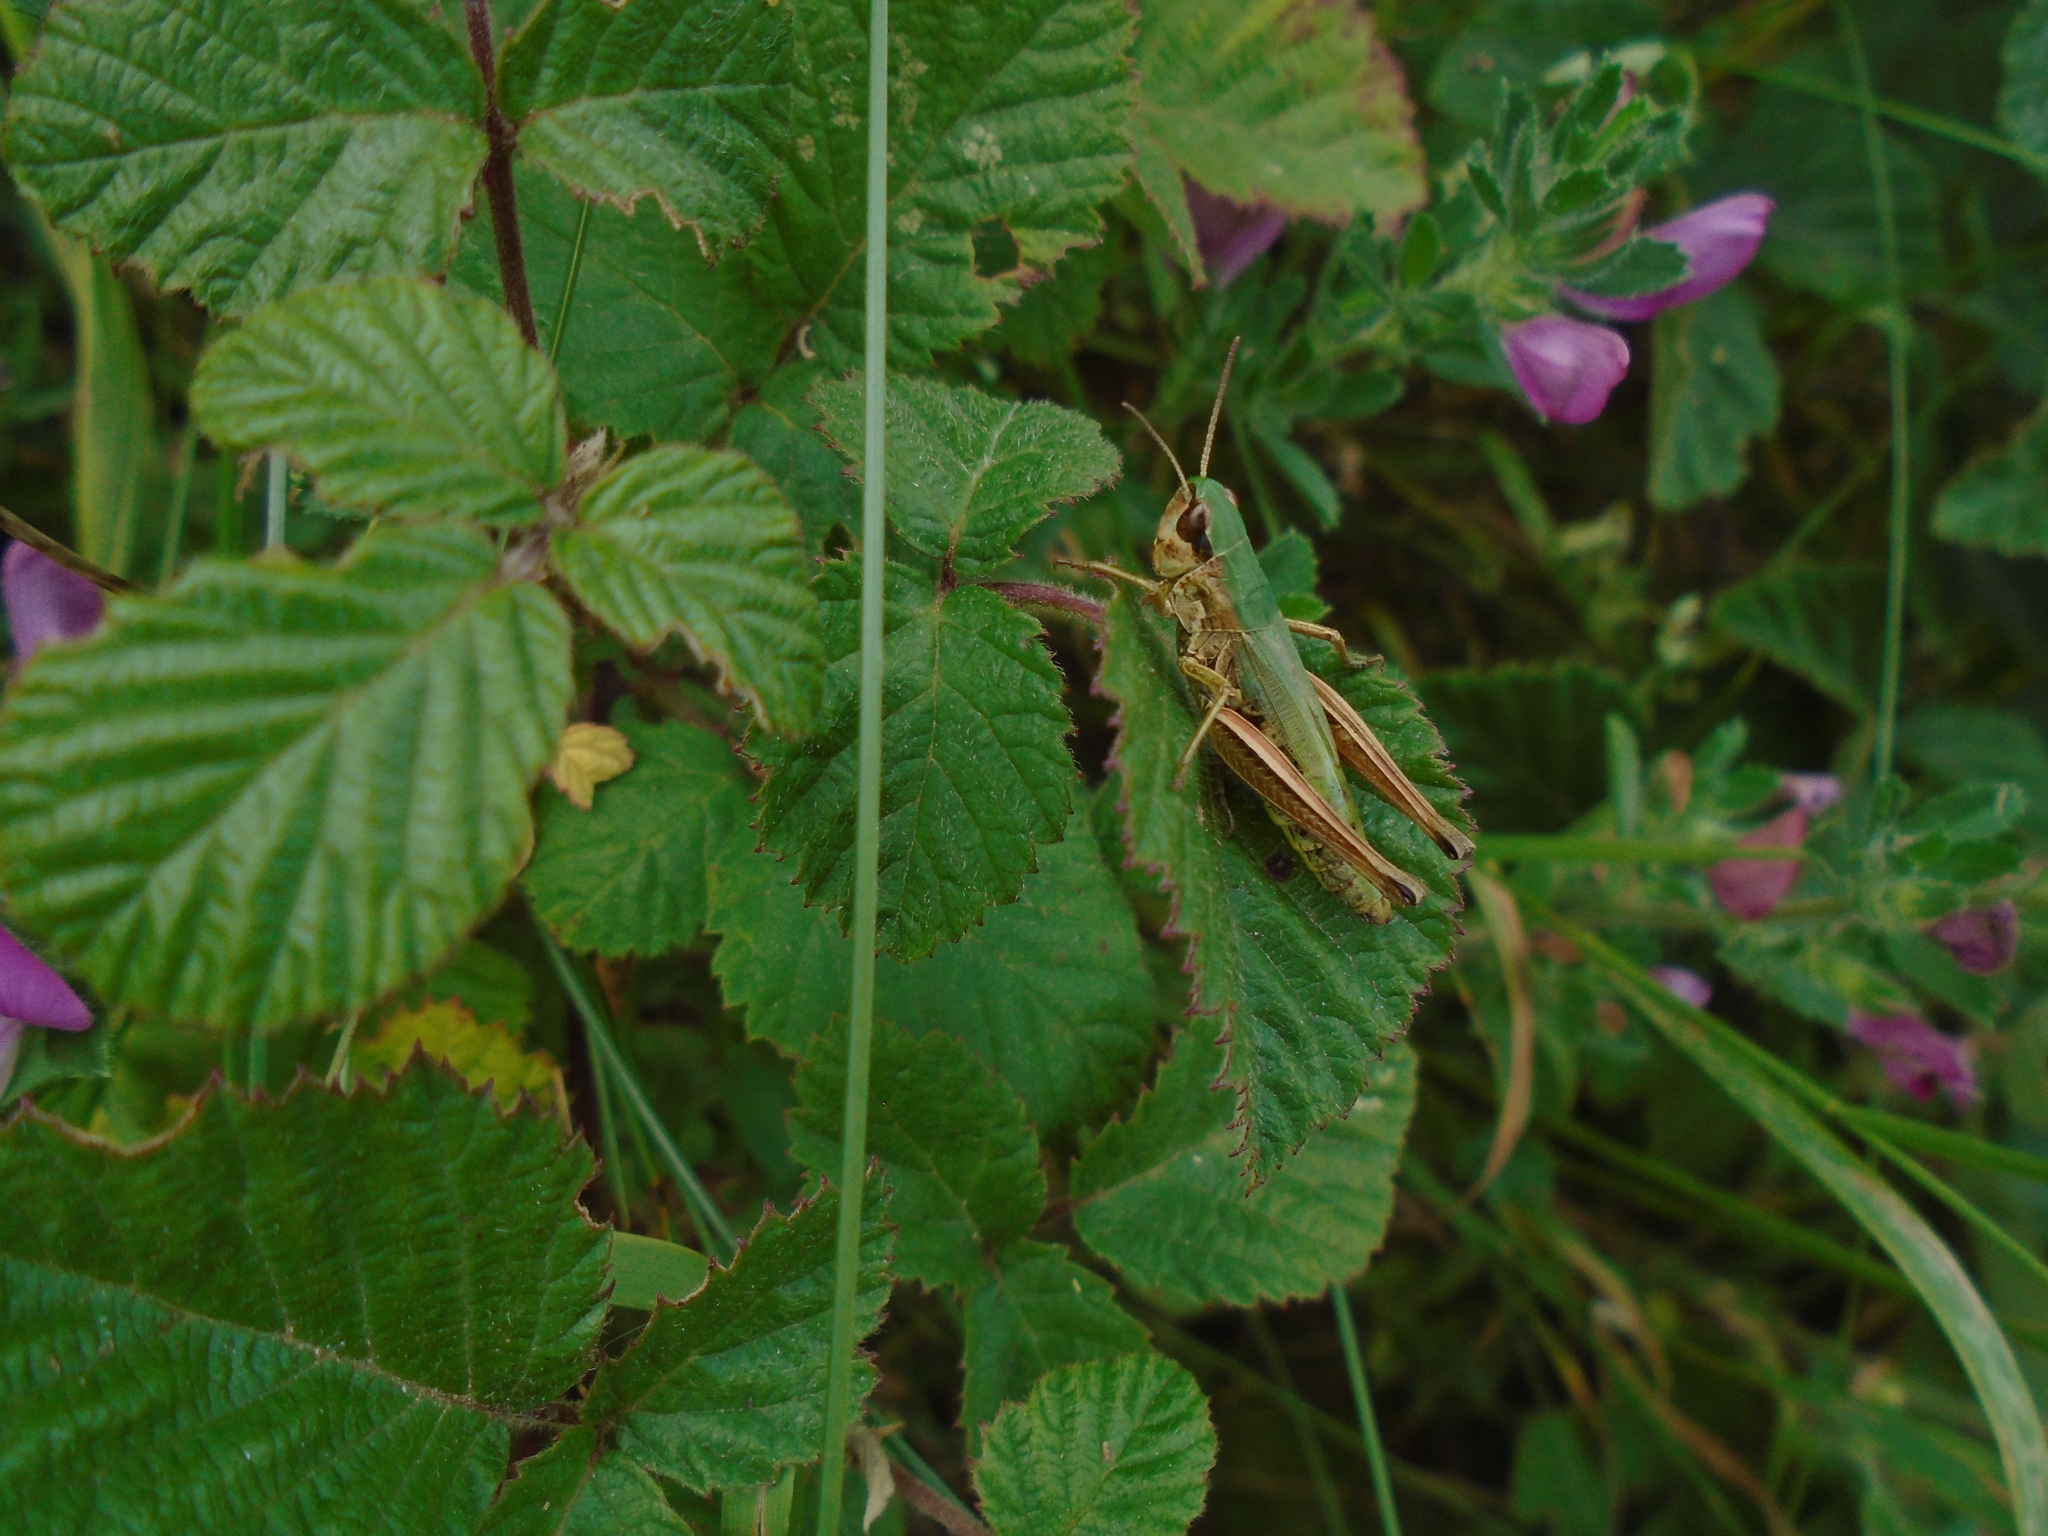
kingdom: Animalia
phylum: Arthropoda
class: Insecta
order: Orthoptera
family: Acrididae
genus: Pseudochorthippus
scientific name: Pseudochorthippus parallelus
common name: Meadow grasshopper
